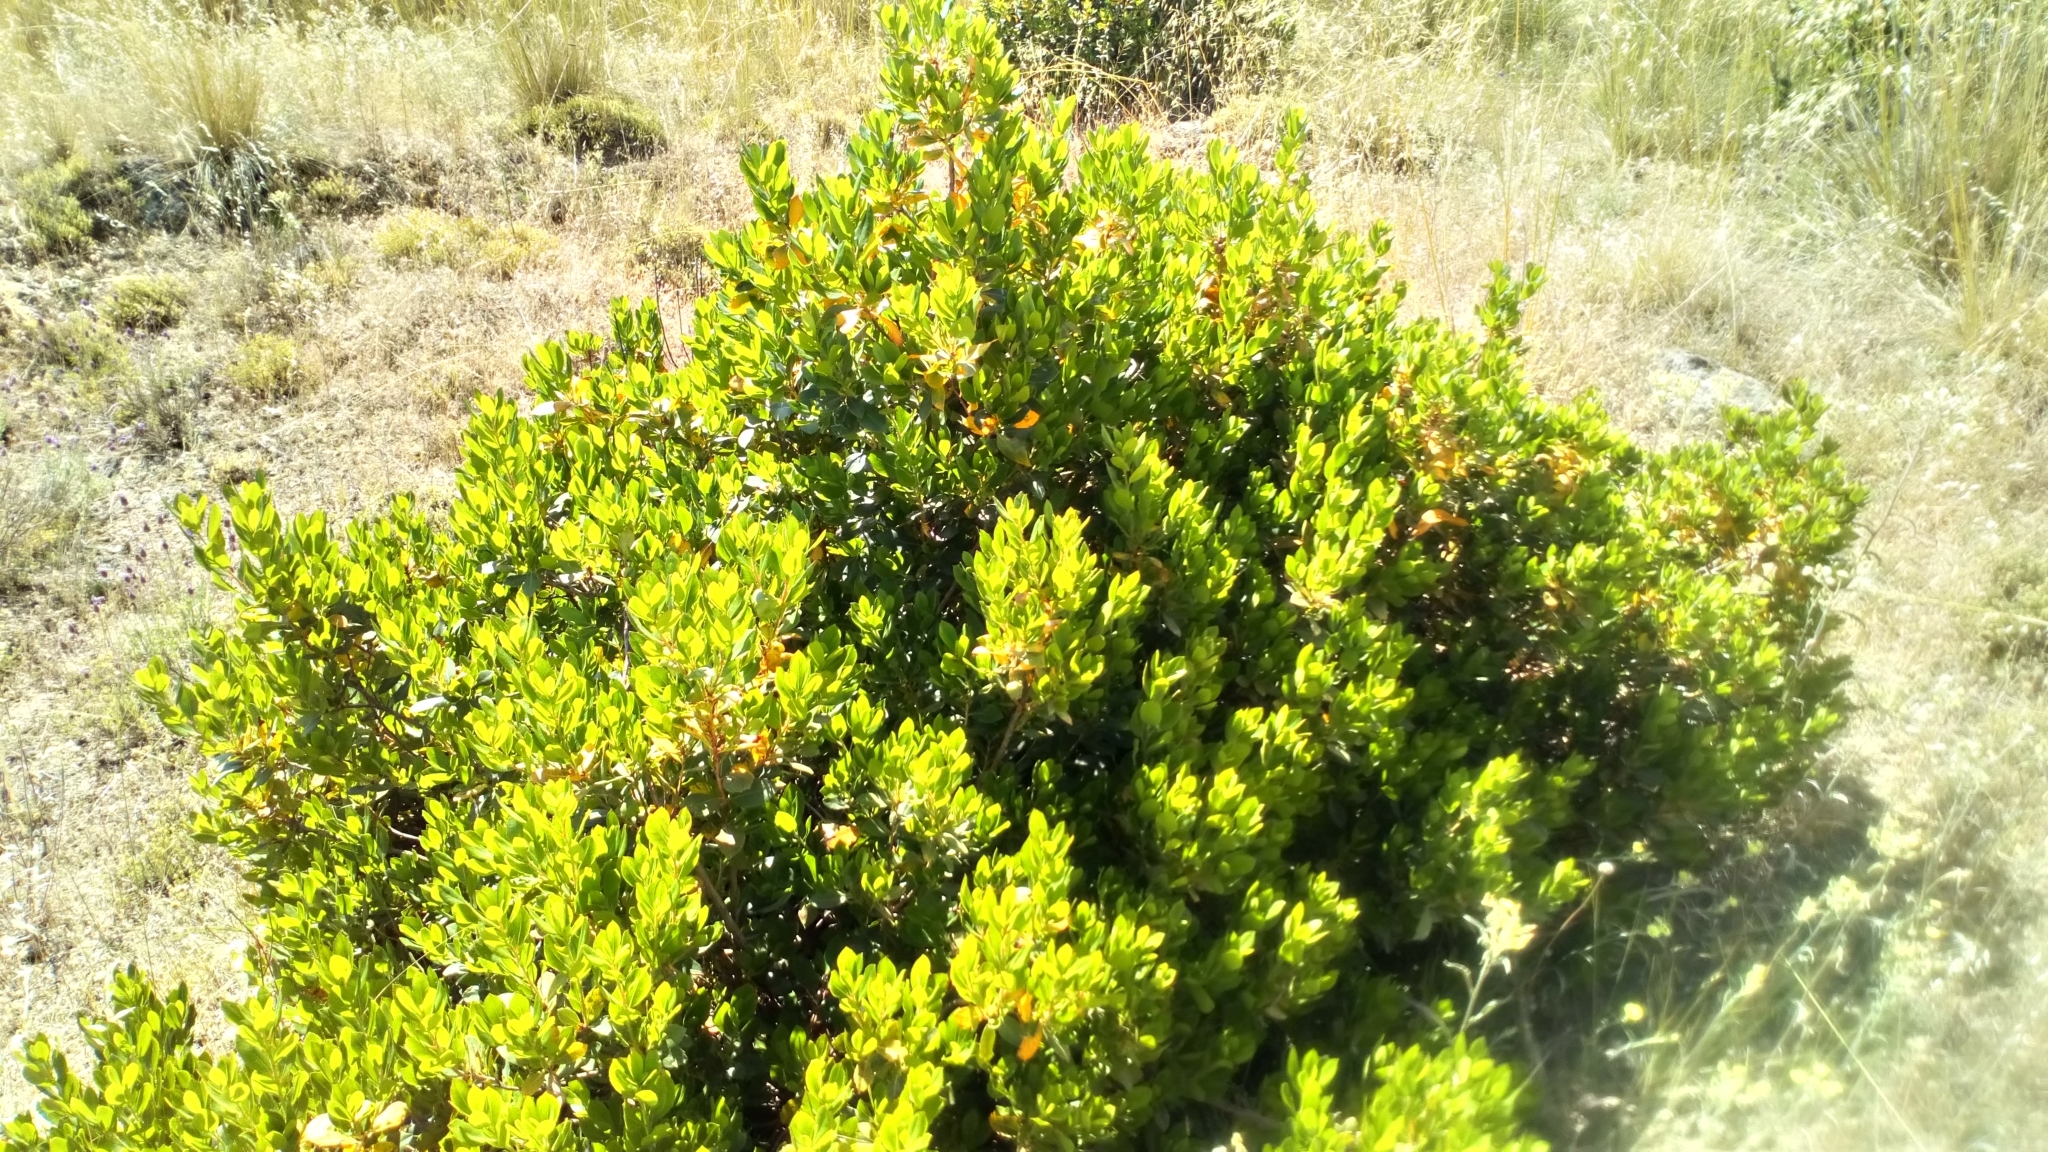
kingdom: Plantae
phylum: Tracheophyta
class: Magnoliopsida
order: Ericales
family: Ericaceae
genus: Arbutus
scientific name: Arbutus unedo
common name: Strawberry-tree
